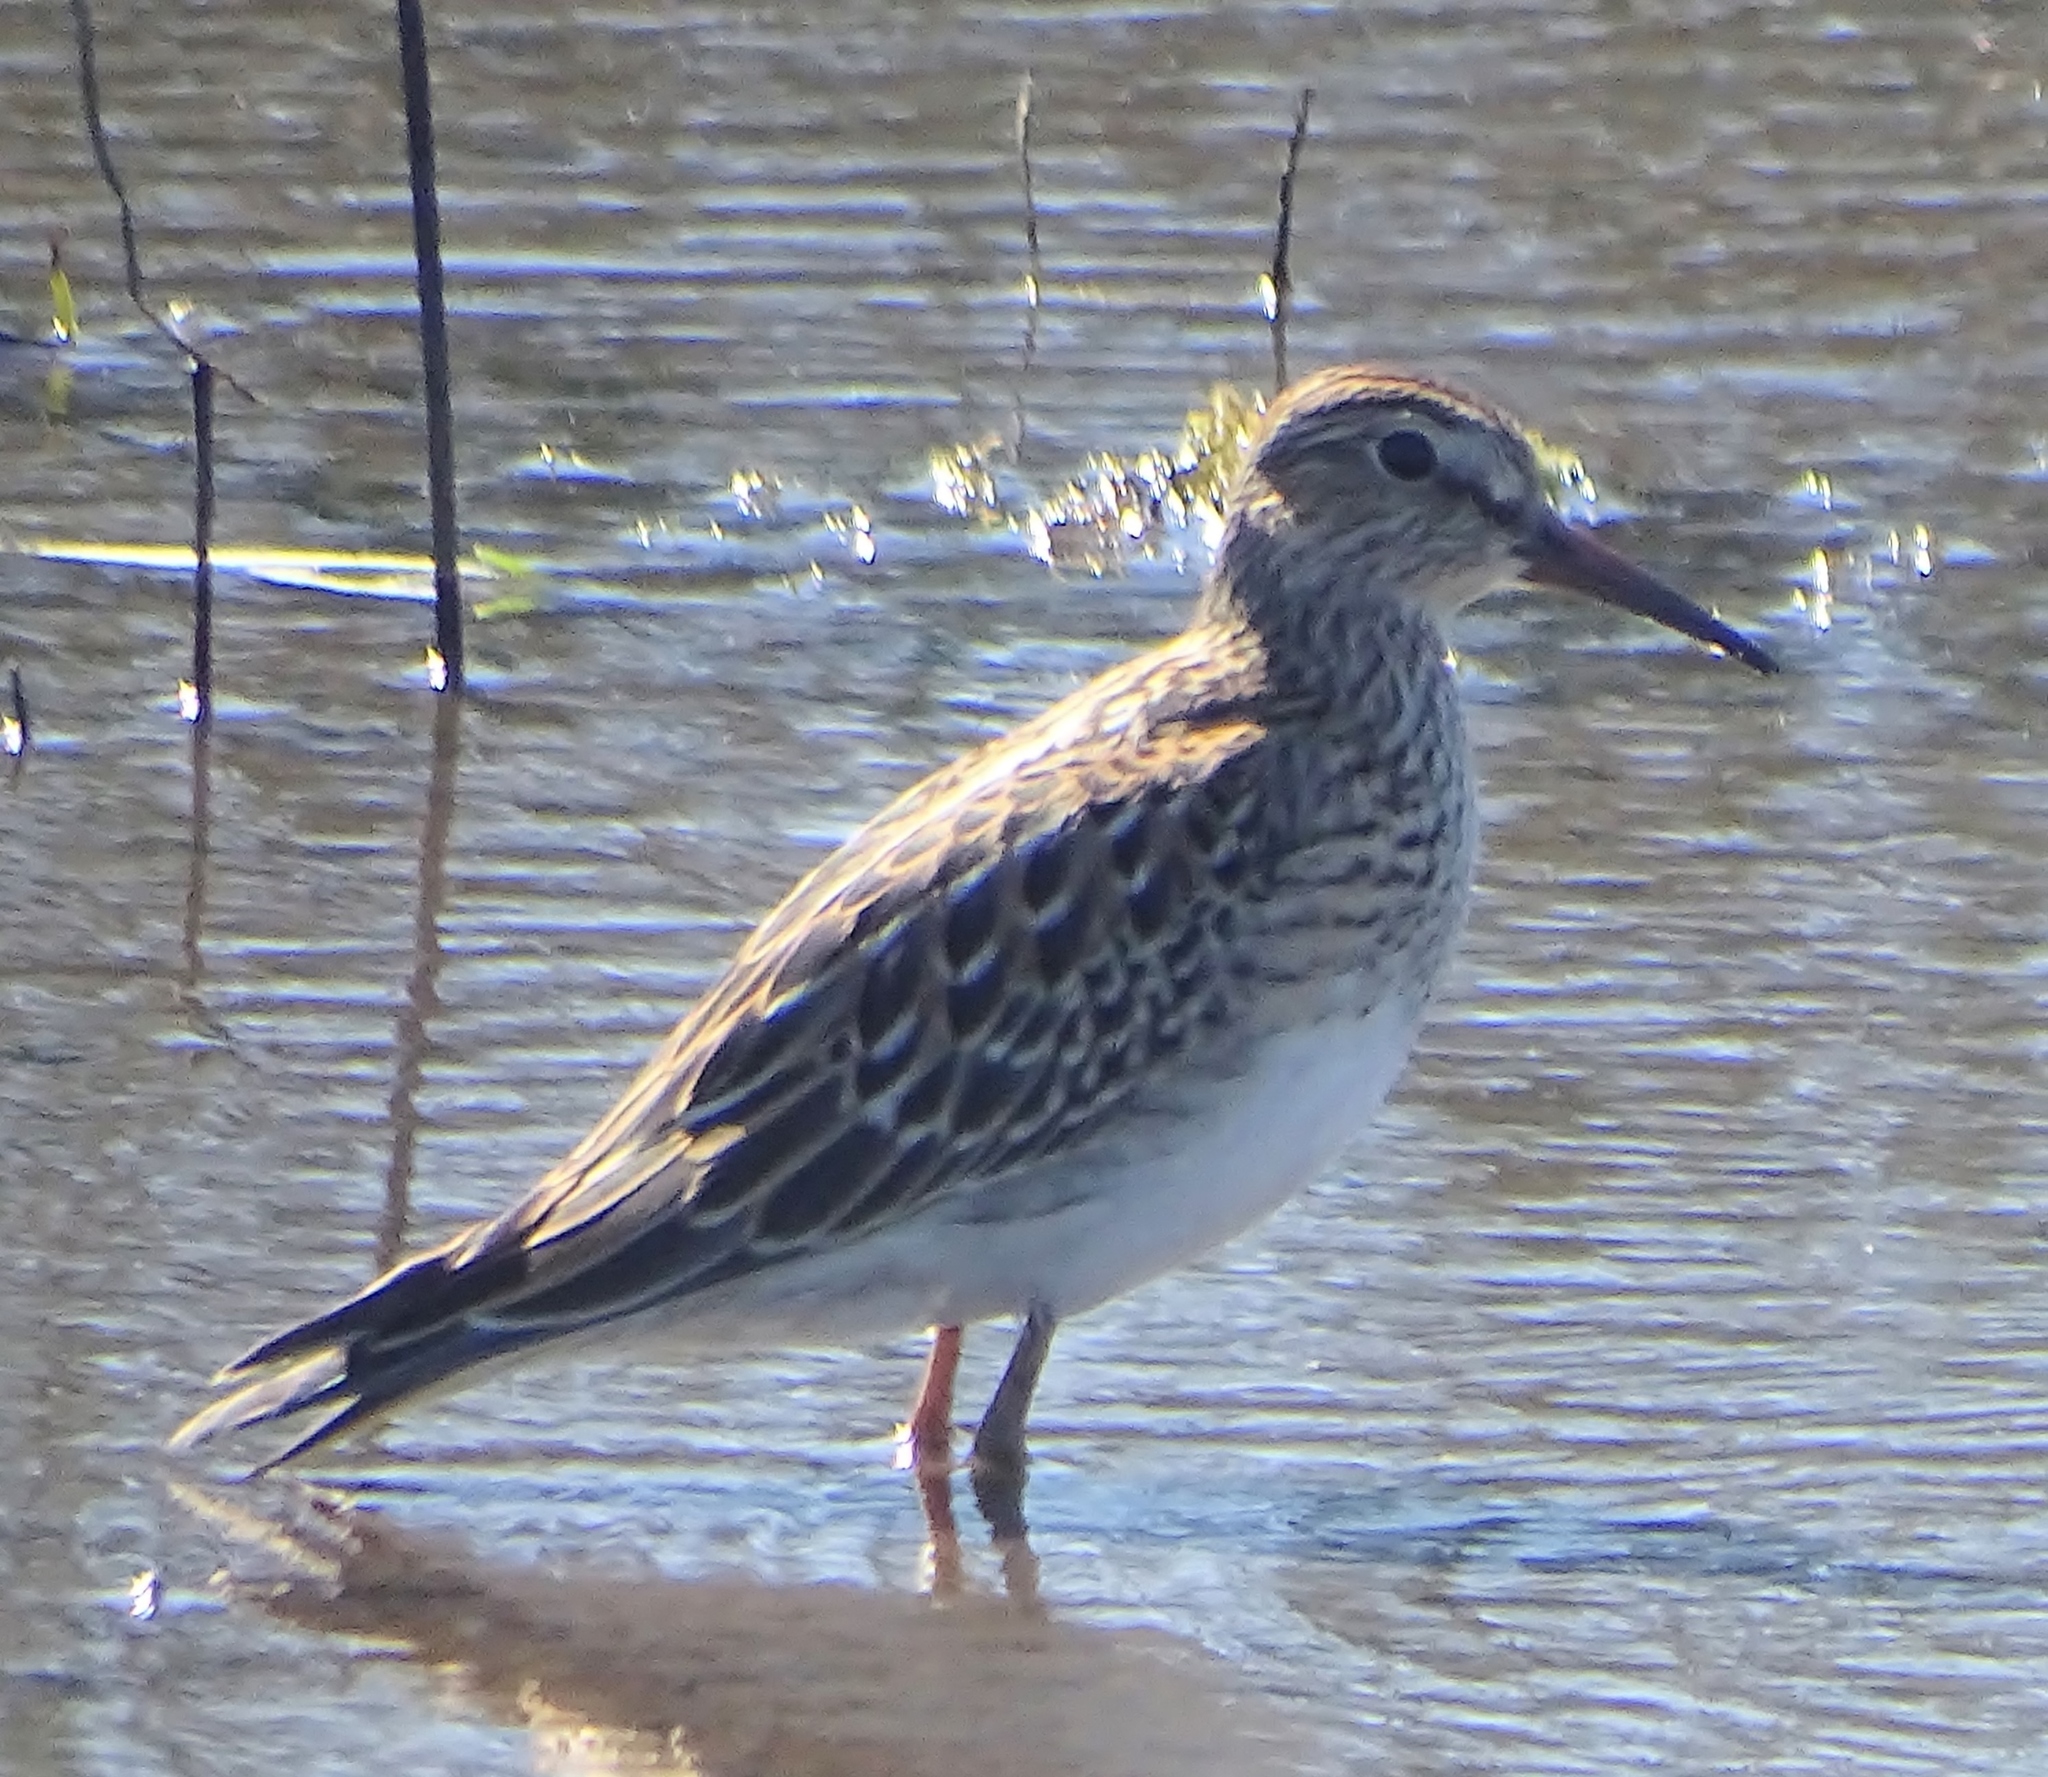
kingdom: Animalia
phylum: Chordata
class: Aves
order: Charadriiformes
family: Scolopacidae
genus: Calidris
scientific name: Calidris melanotos
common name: Pectoral sandpiper
